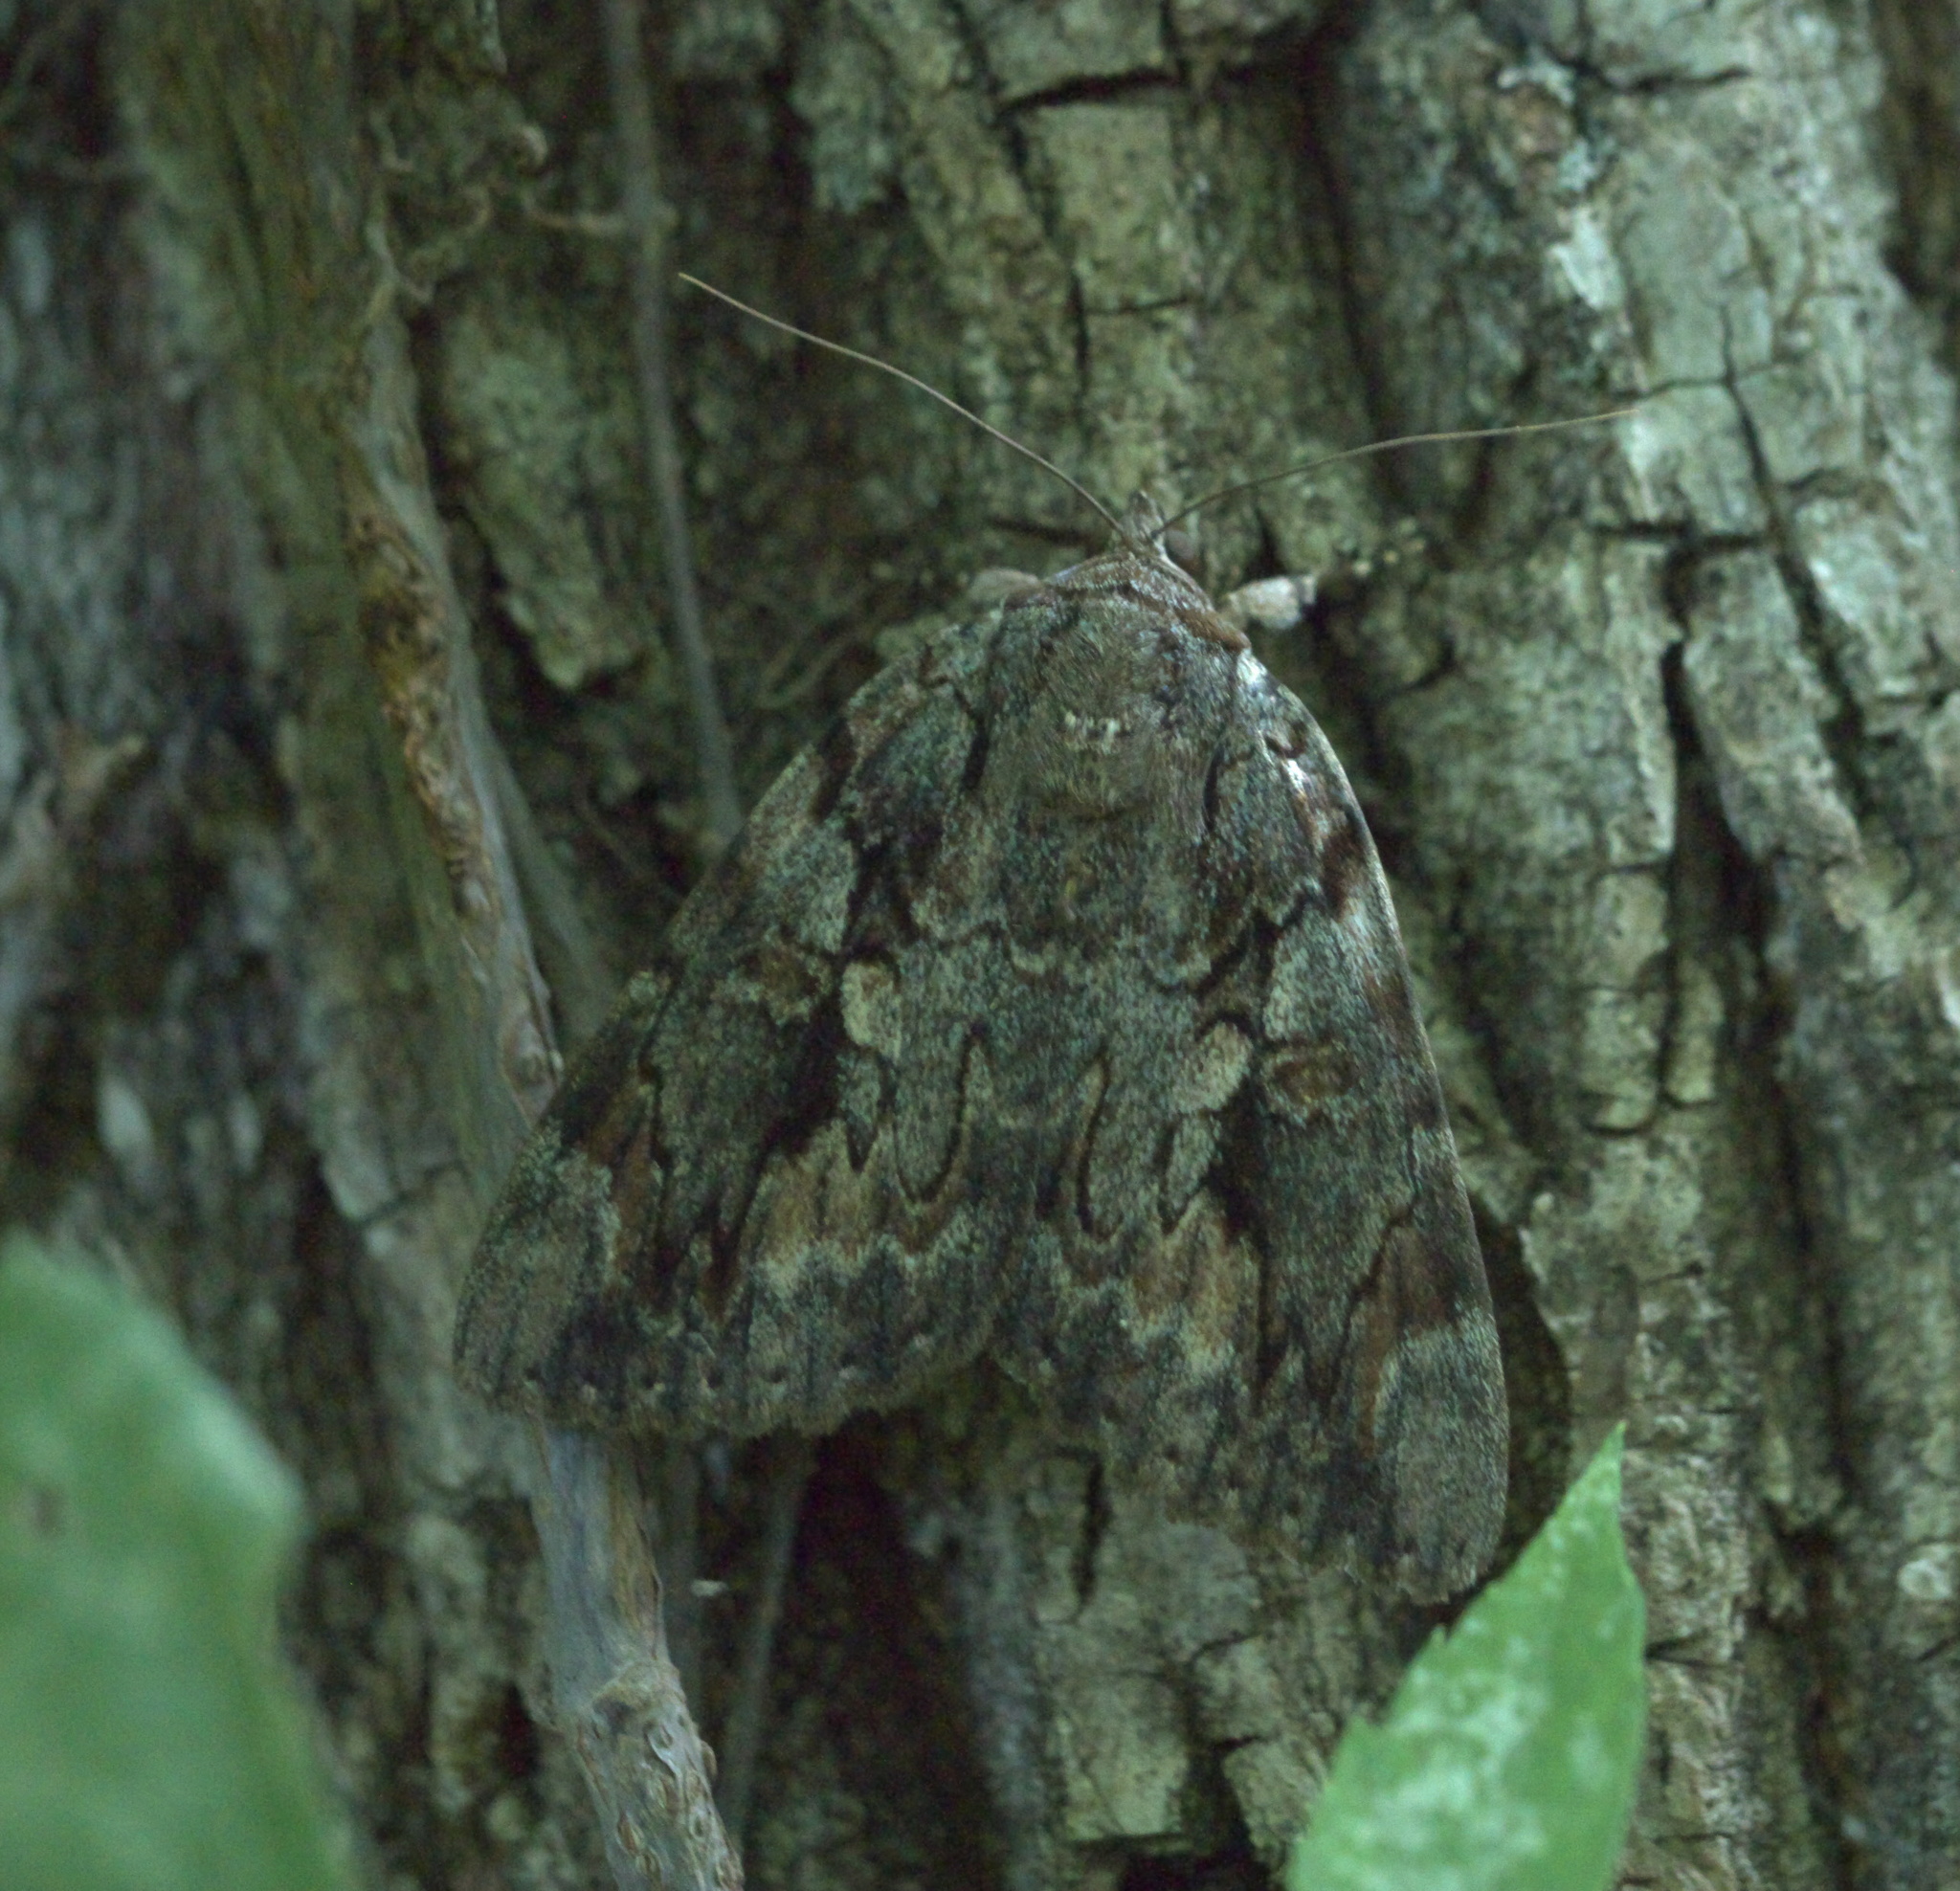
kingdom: Animalia
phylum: Arthropoda
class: Insecta
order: Lepidoptera
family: Erebidae
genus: Catocala
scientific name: Catocala agrippina
